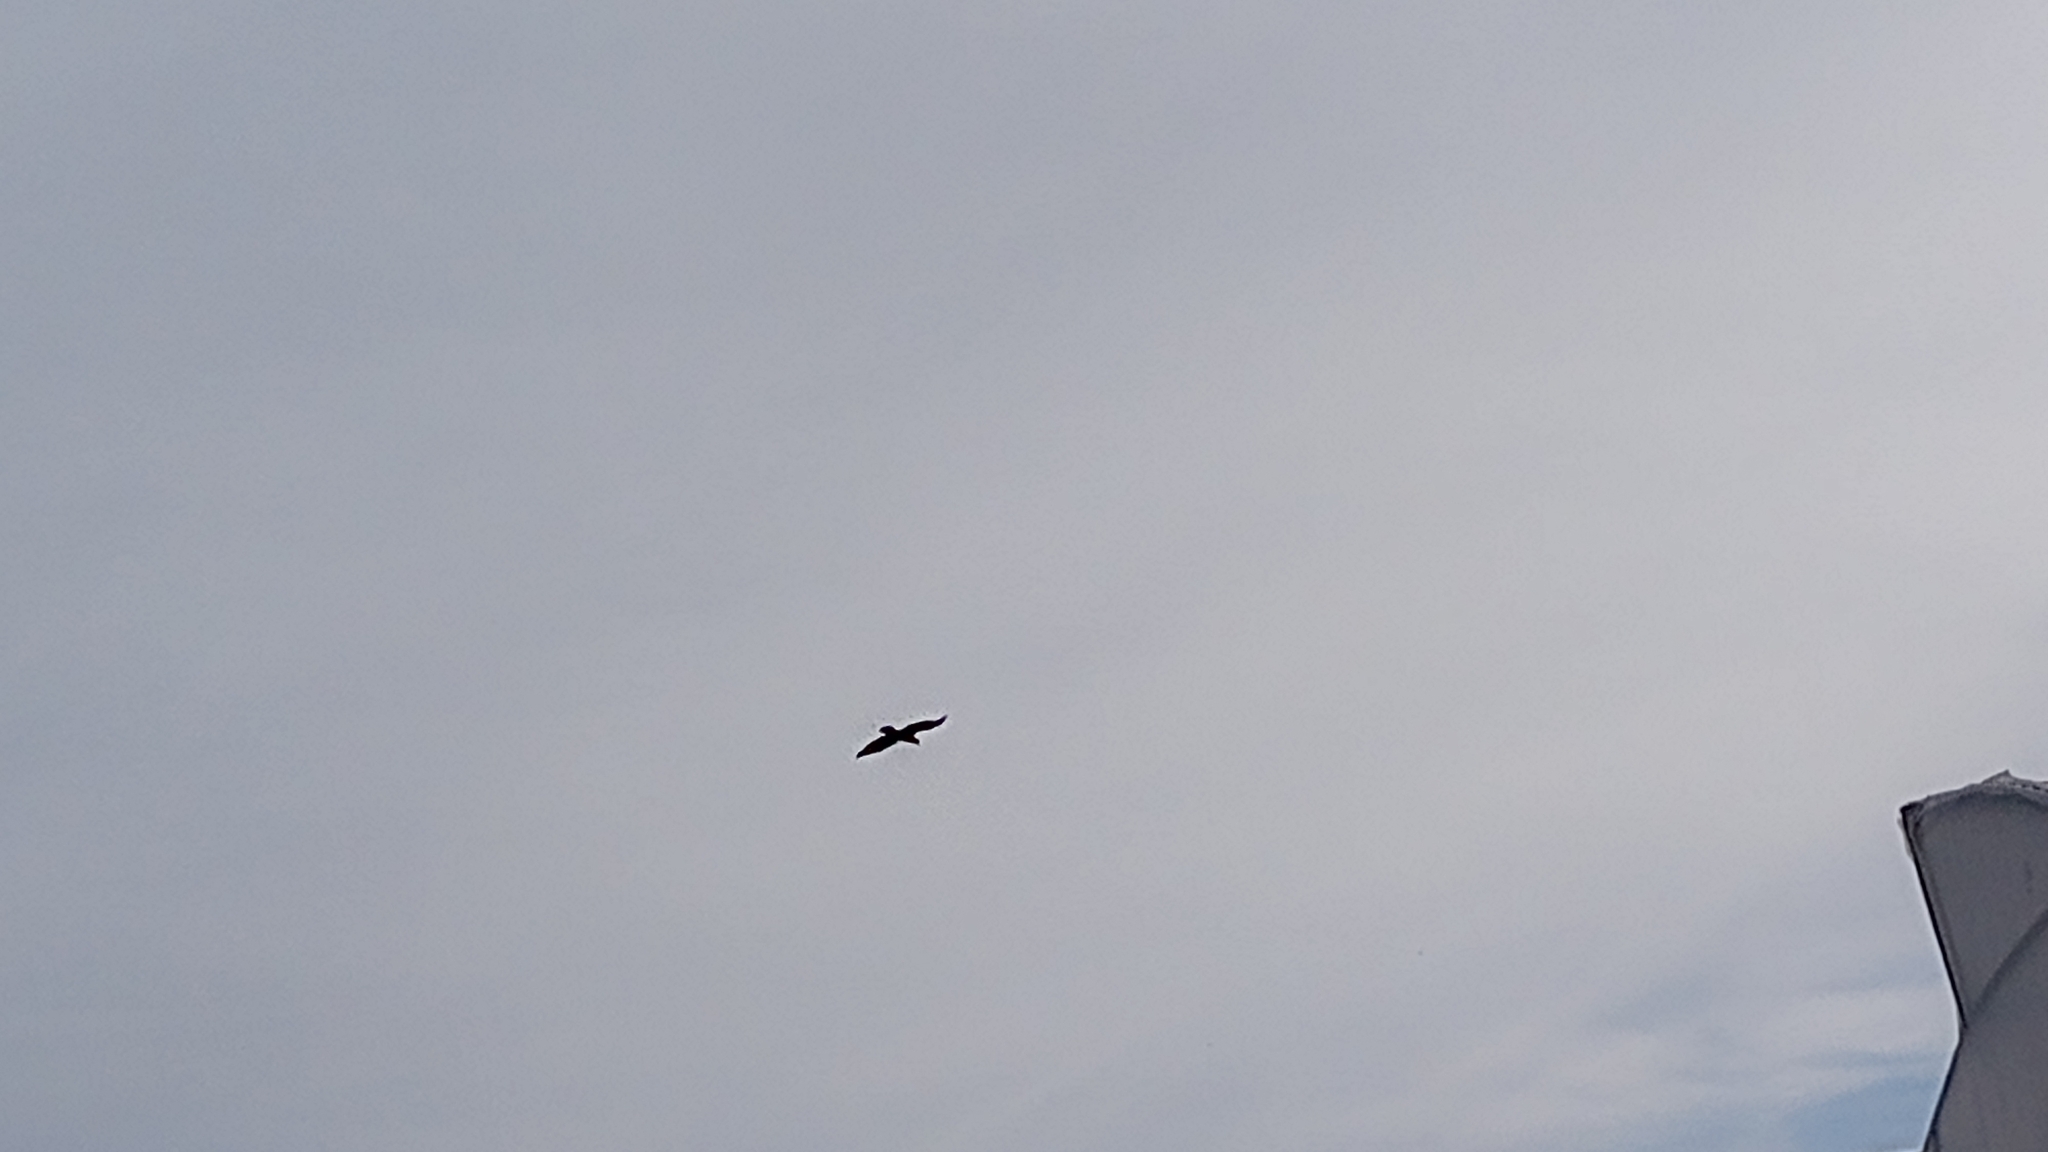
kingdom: Animalia
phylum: Chordata
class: Aves
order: Falconiformes
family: Falconidae
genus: Caracara
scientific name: Caracara plancus
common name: Southern caracara
